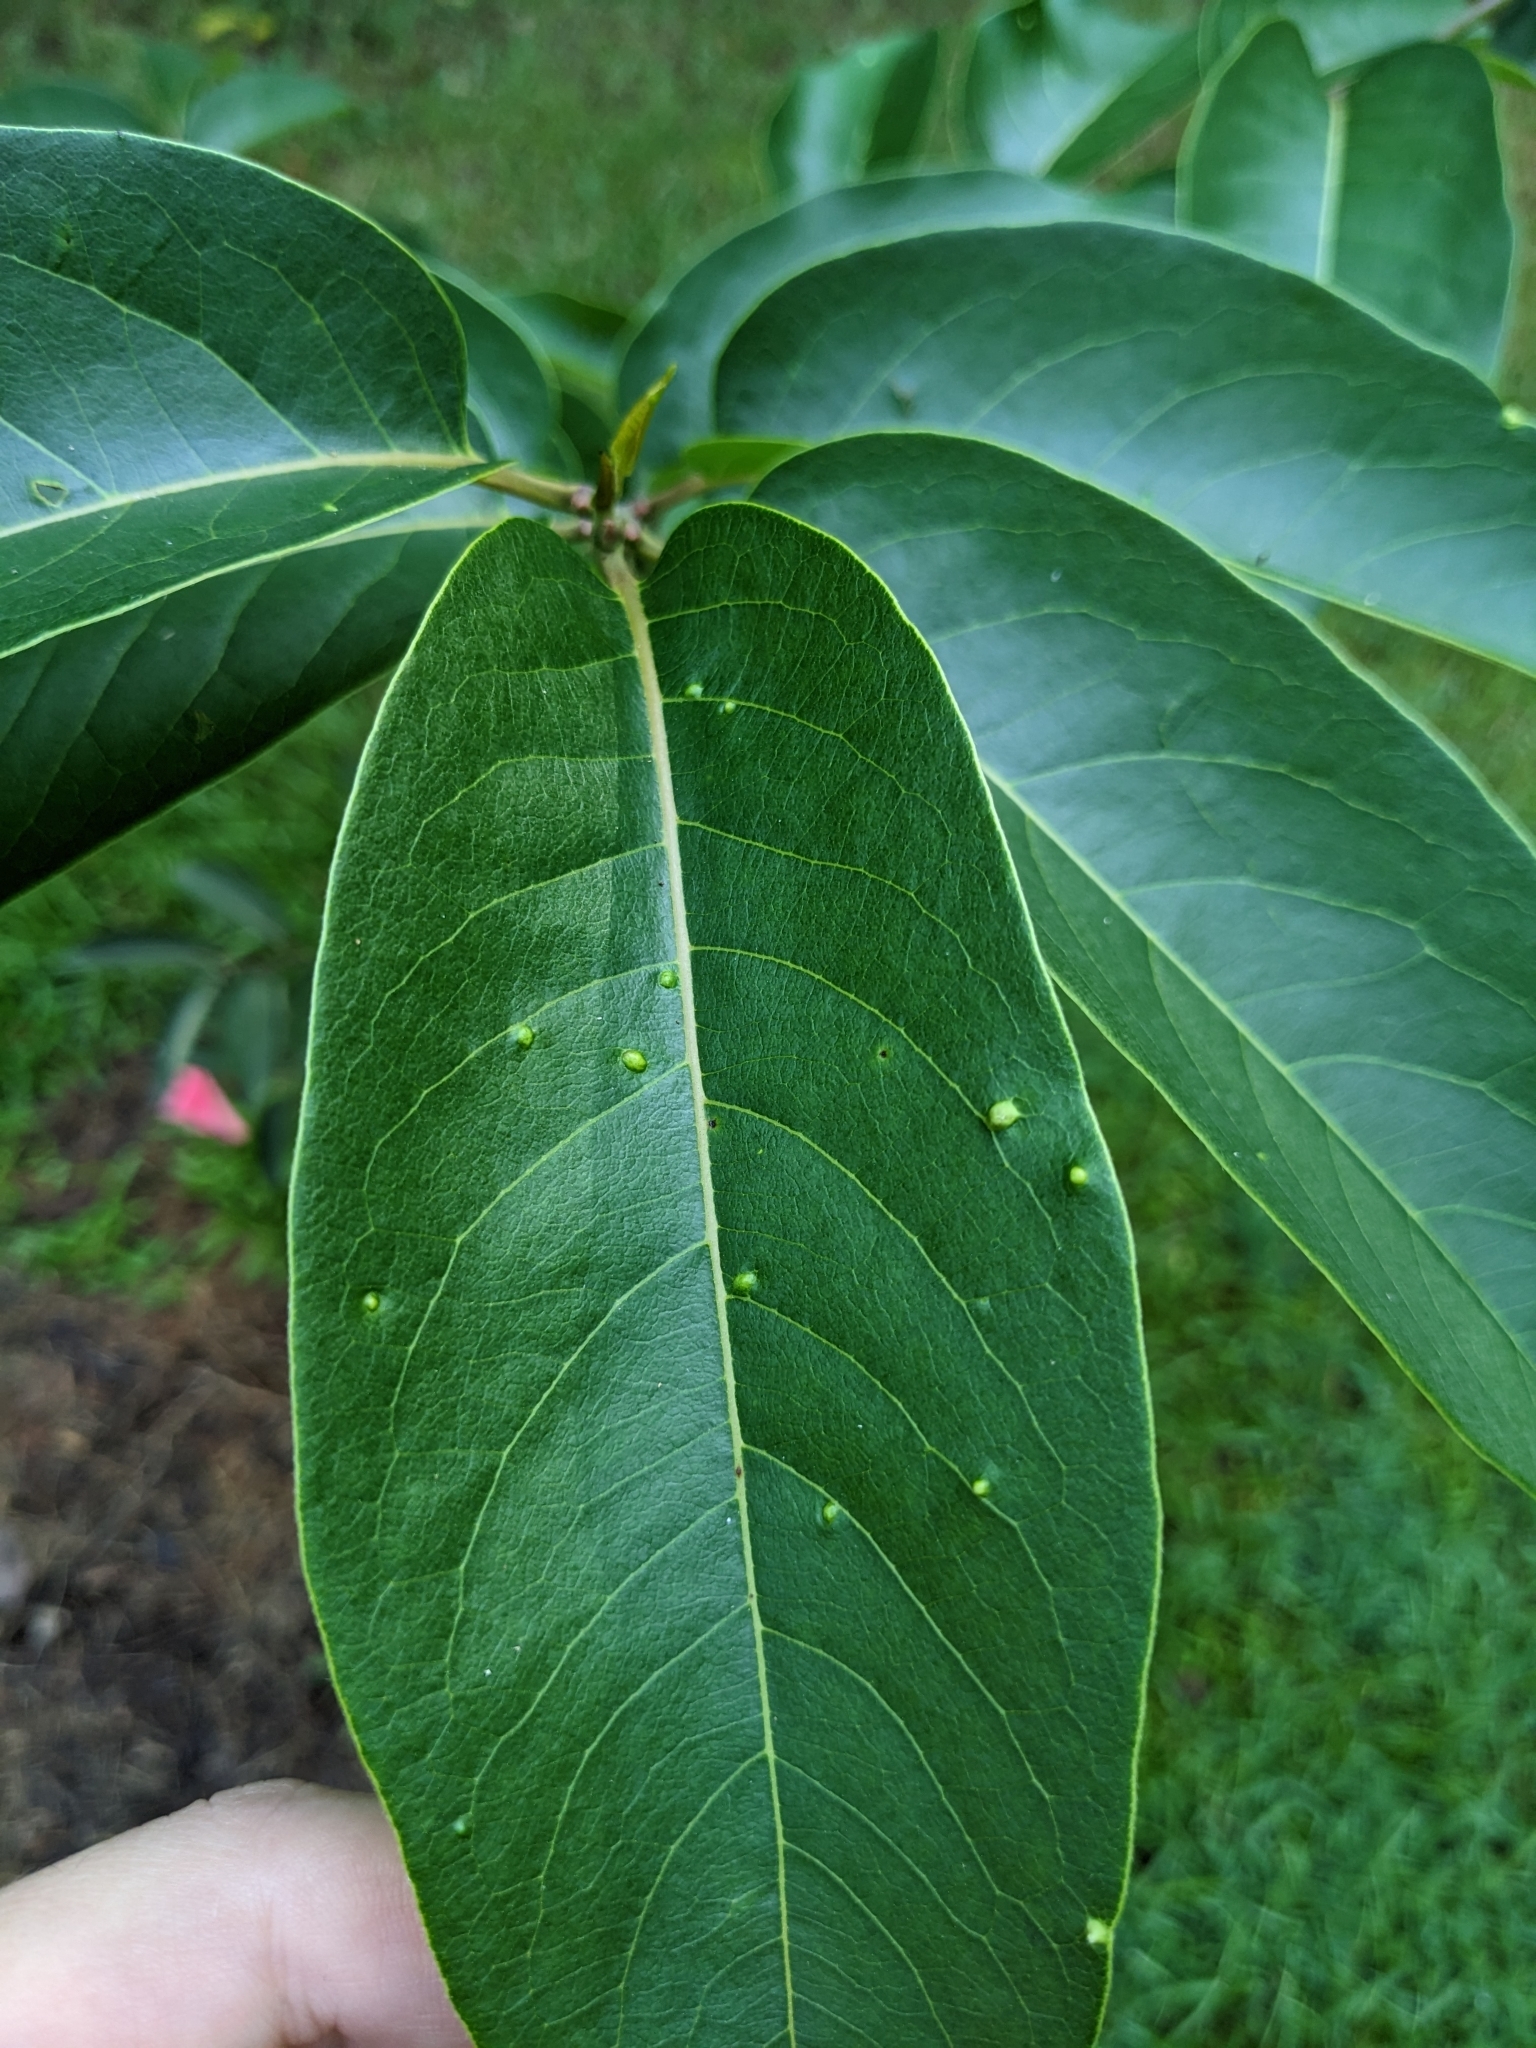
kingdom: Animalia
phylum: Arthropoda
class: Arachnida
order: Trombidiformes
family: Eriophyidae
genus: Aceria
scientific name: Aceria
